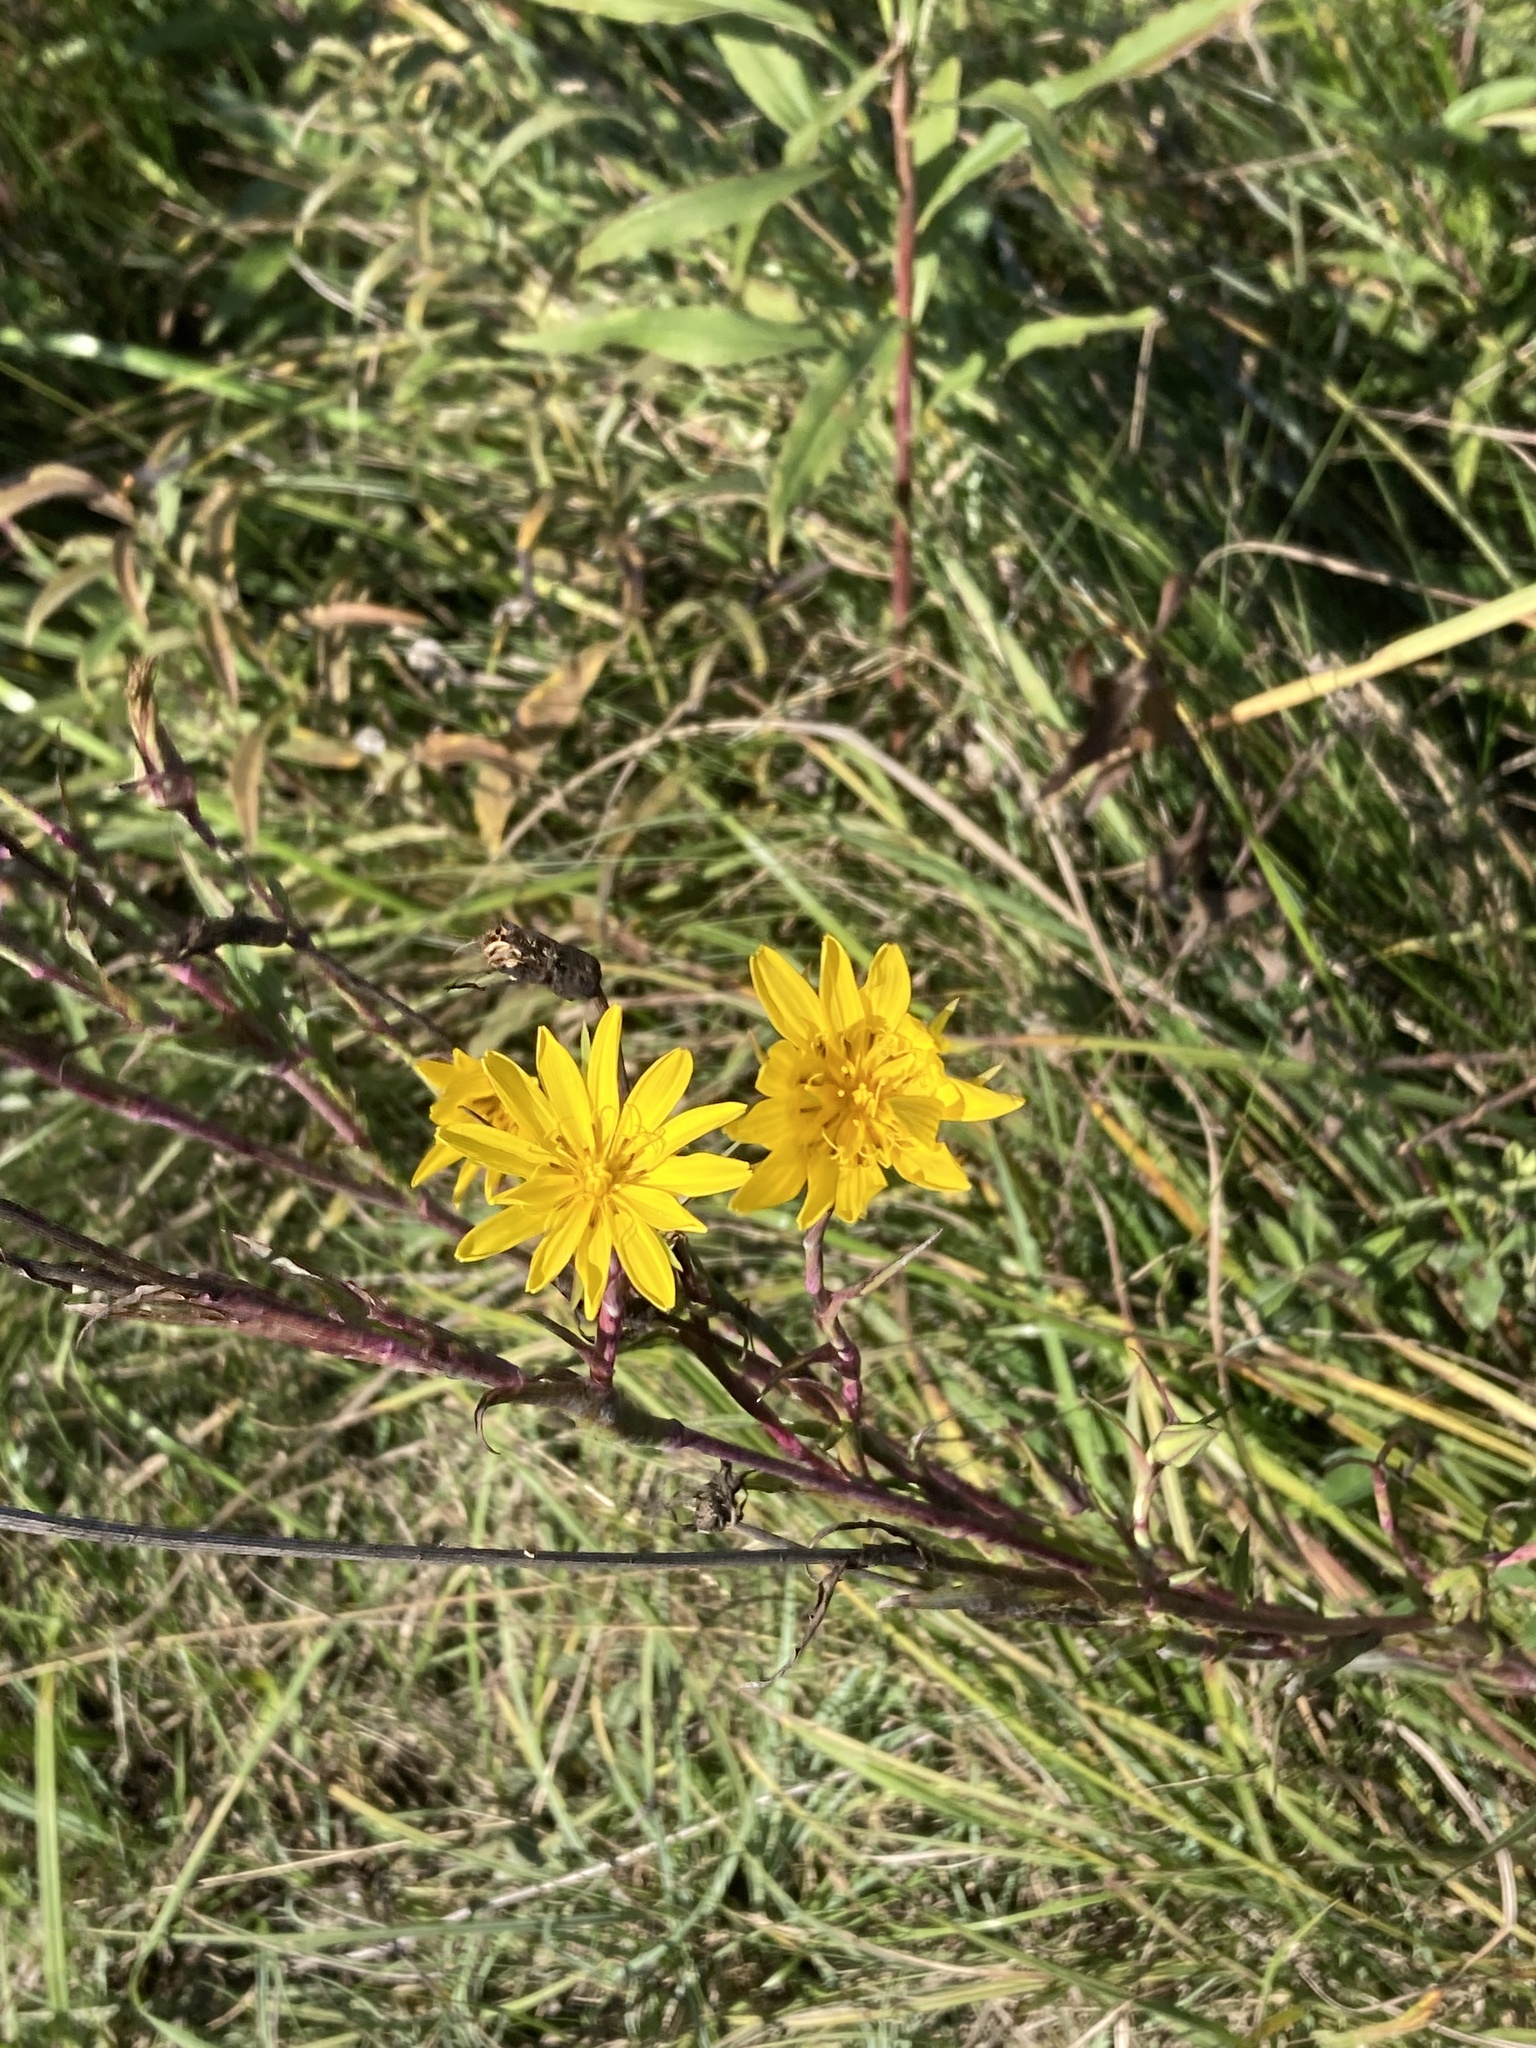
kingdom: Plantae
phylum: Tracheophyta
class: Magnoliopsida
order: Asterales
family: Asteraceae
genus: Tragopogon
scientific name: Tragopogon orientalis
